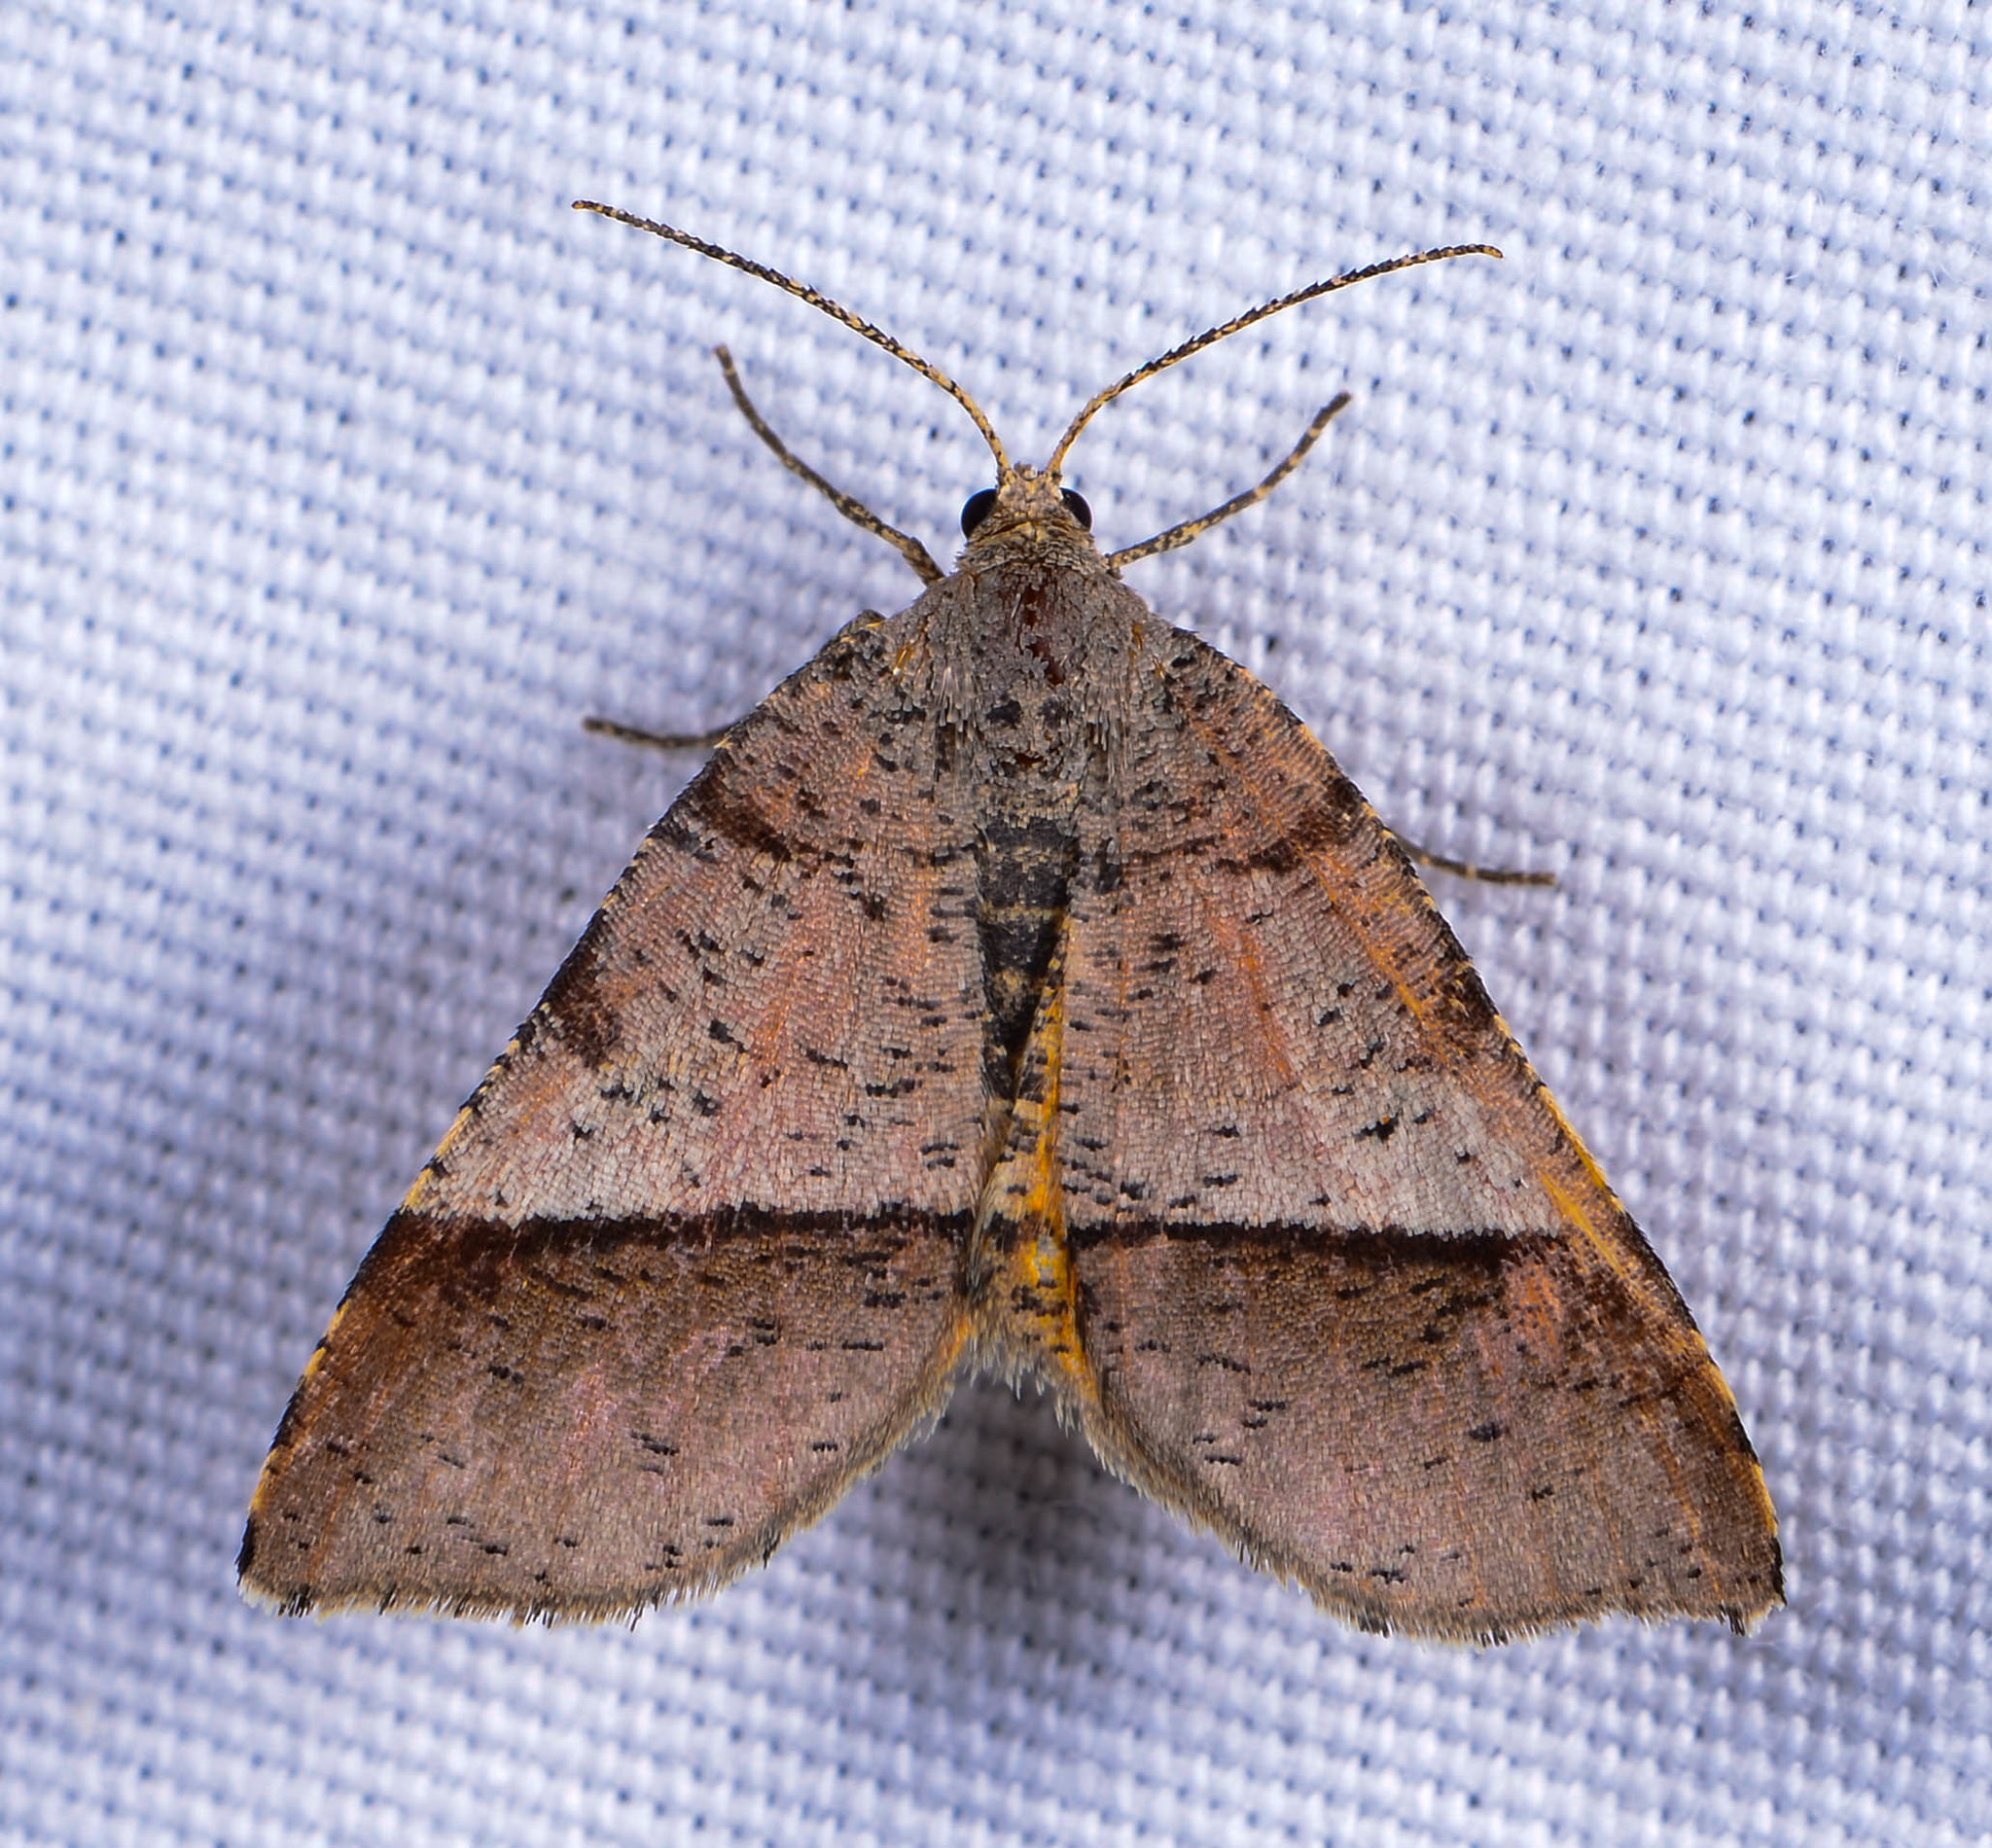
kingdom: Animalia
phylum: Arthropoda
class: Insecta
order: Lepidoptera
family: Geometridae
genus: Mellilla
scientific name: Mellilla xanthometata
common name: Orange wing moth
